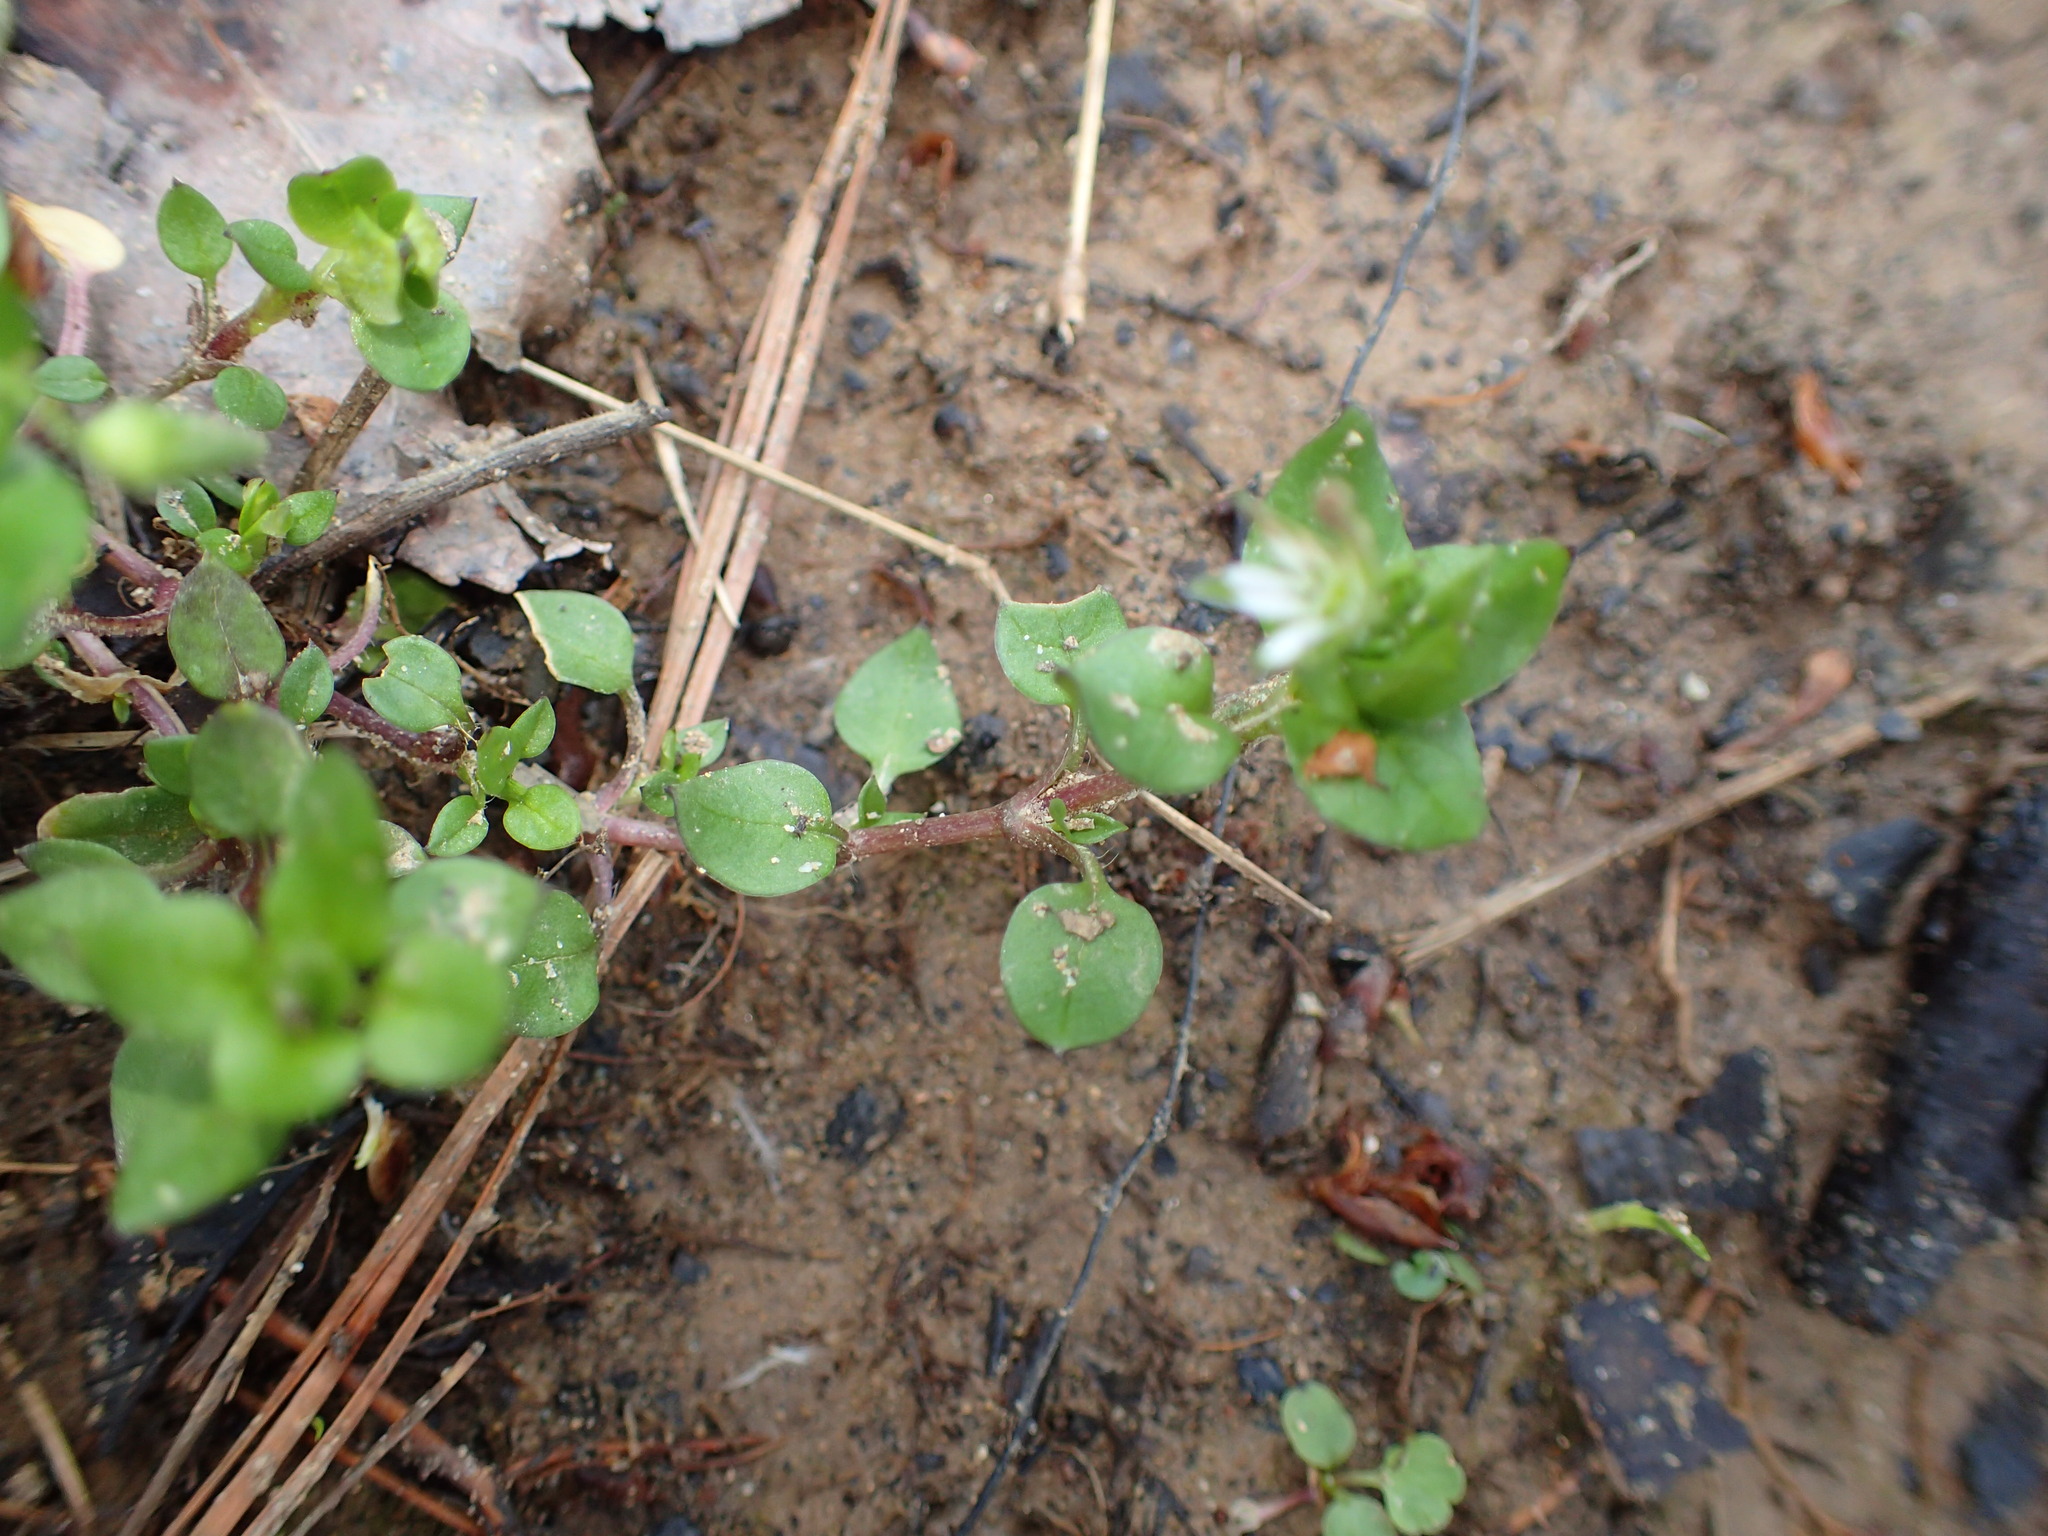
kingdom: Plantae
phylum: Tracheophyta
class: Magnoliopsida
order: Caryophyllales
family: Caryophyllaceae
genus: Stellaria
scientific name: Stellaria media
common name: Common chickweed
